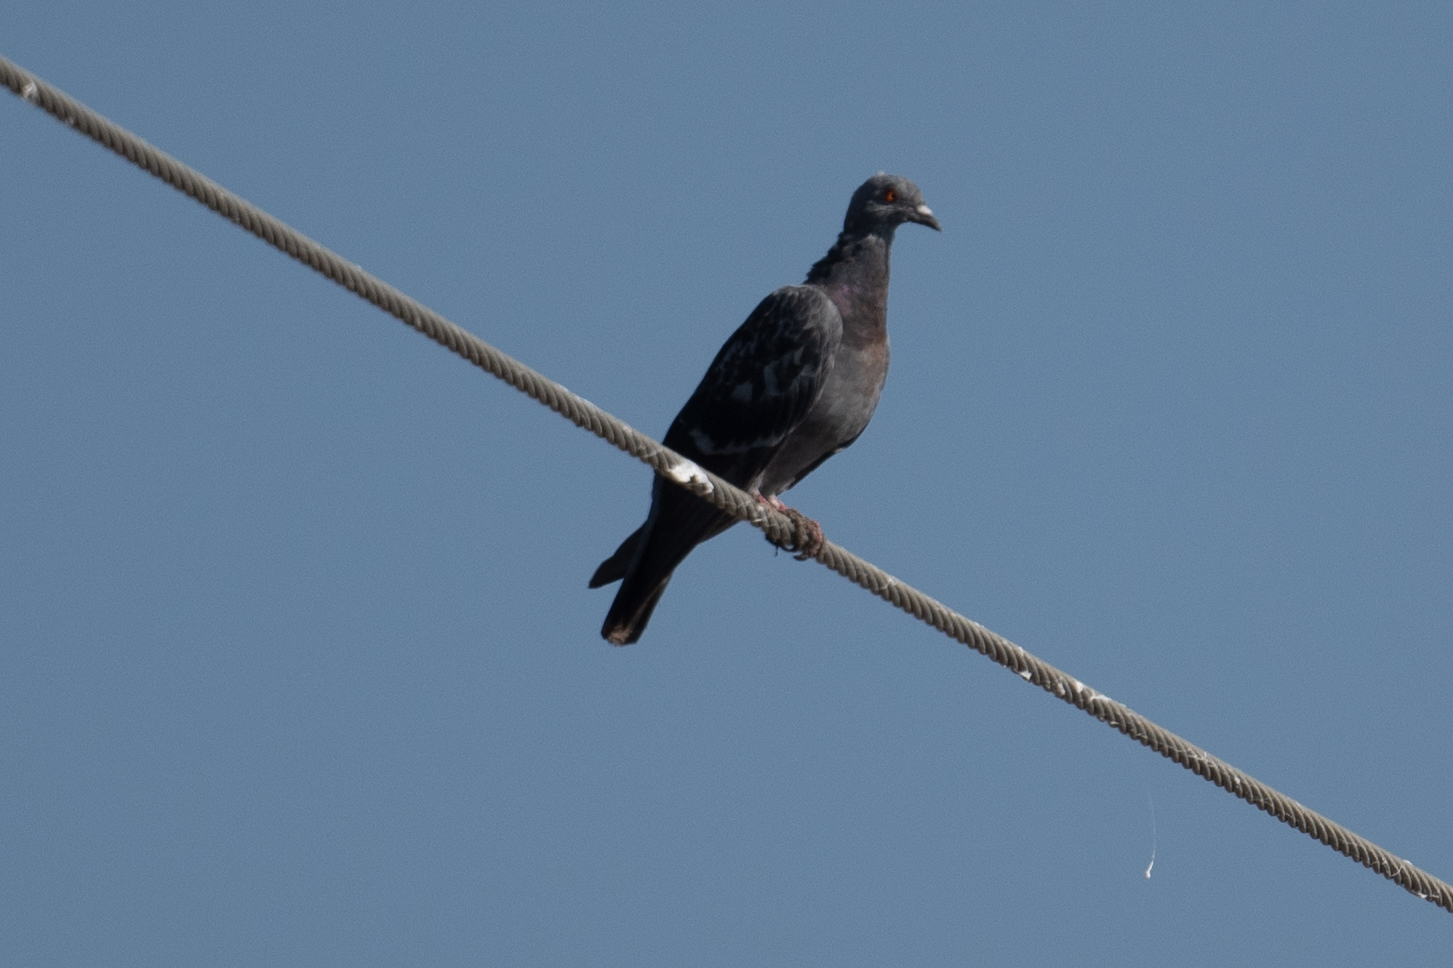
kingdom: Animalia
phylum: Chordata
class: Aves
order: Columbiformes
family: Columbidae
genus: Columba
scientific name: Columba livia
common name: Rock pigeon
